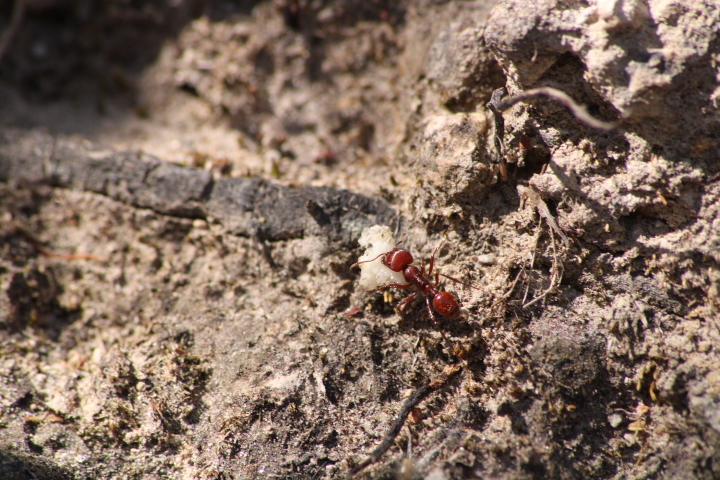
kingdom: Animalia
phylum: Arthropoda
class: Insecta
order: Hymenoptera
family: Formicidae
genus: Pogonomyrmex
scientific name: Pogonomyrmex barbatus
